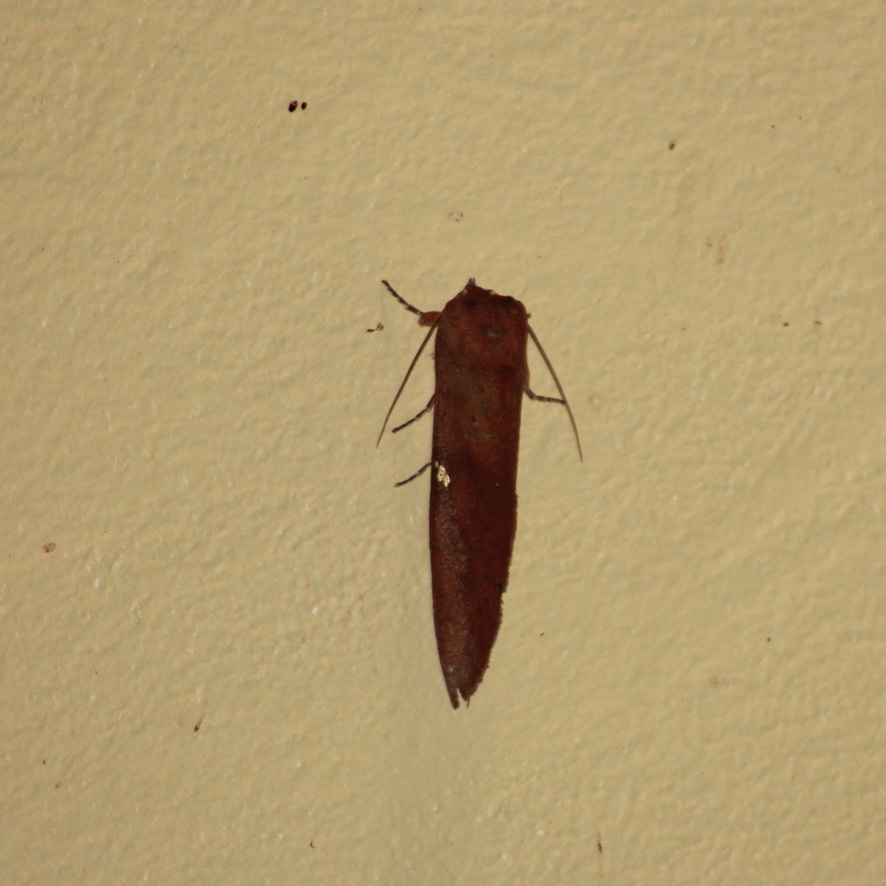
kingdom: Animalia
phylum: Arthropoda
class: Insecta
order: Lepidoptera
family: Notodontidae
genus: Hapigia
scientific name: Hapigia raatzi
